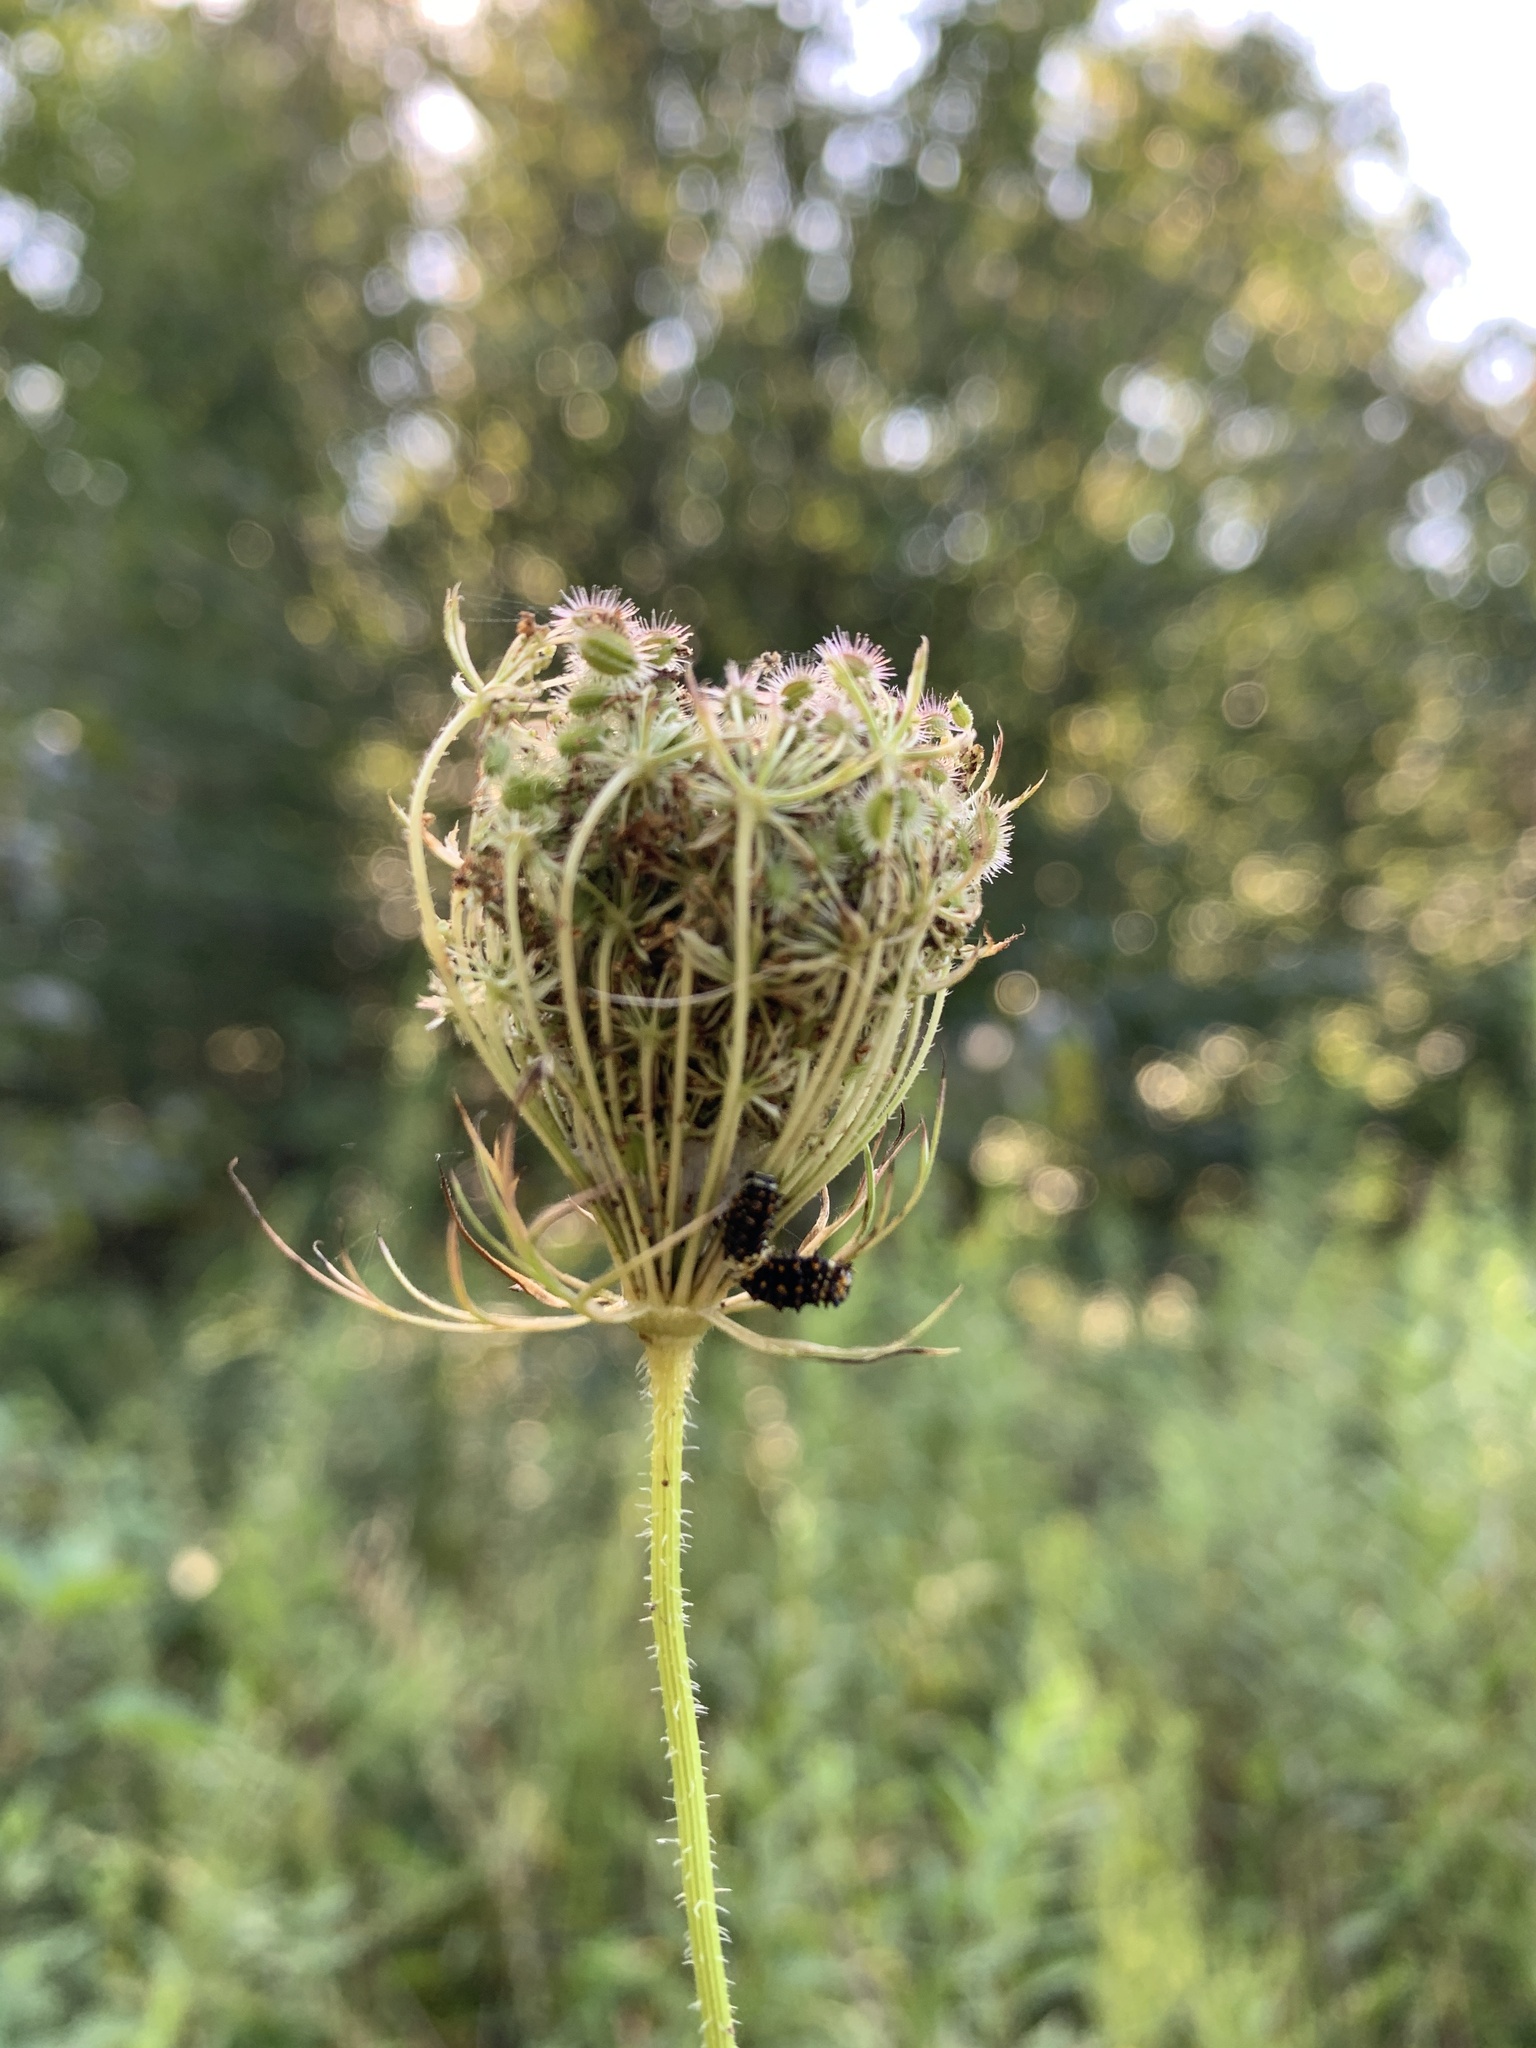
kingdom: Plantae
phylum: Tracheophyta
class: Magnoliopsida
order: Apiales
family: Apiaceae
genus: Daucus
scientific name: Daucus carota
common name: Wild carrot
